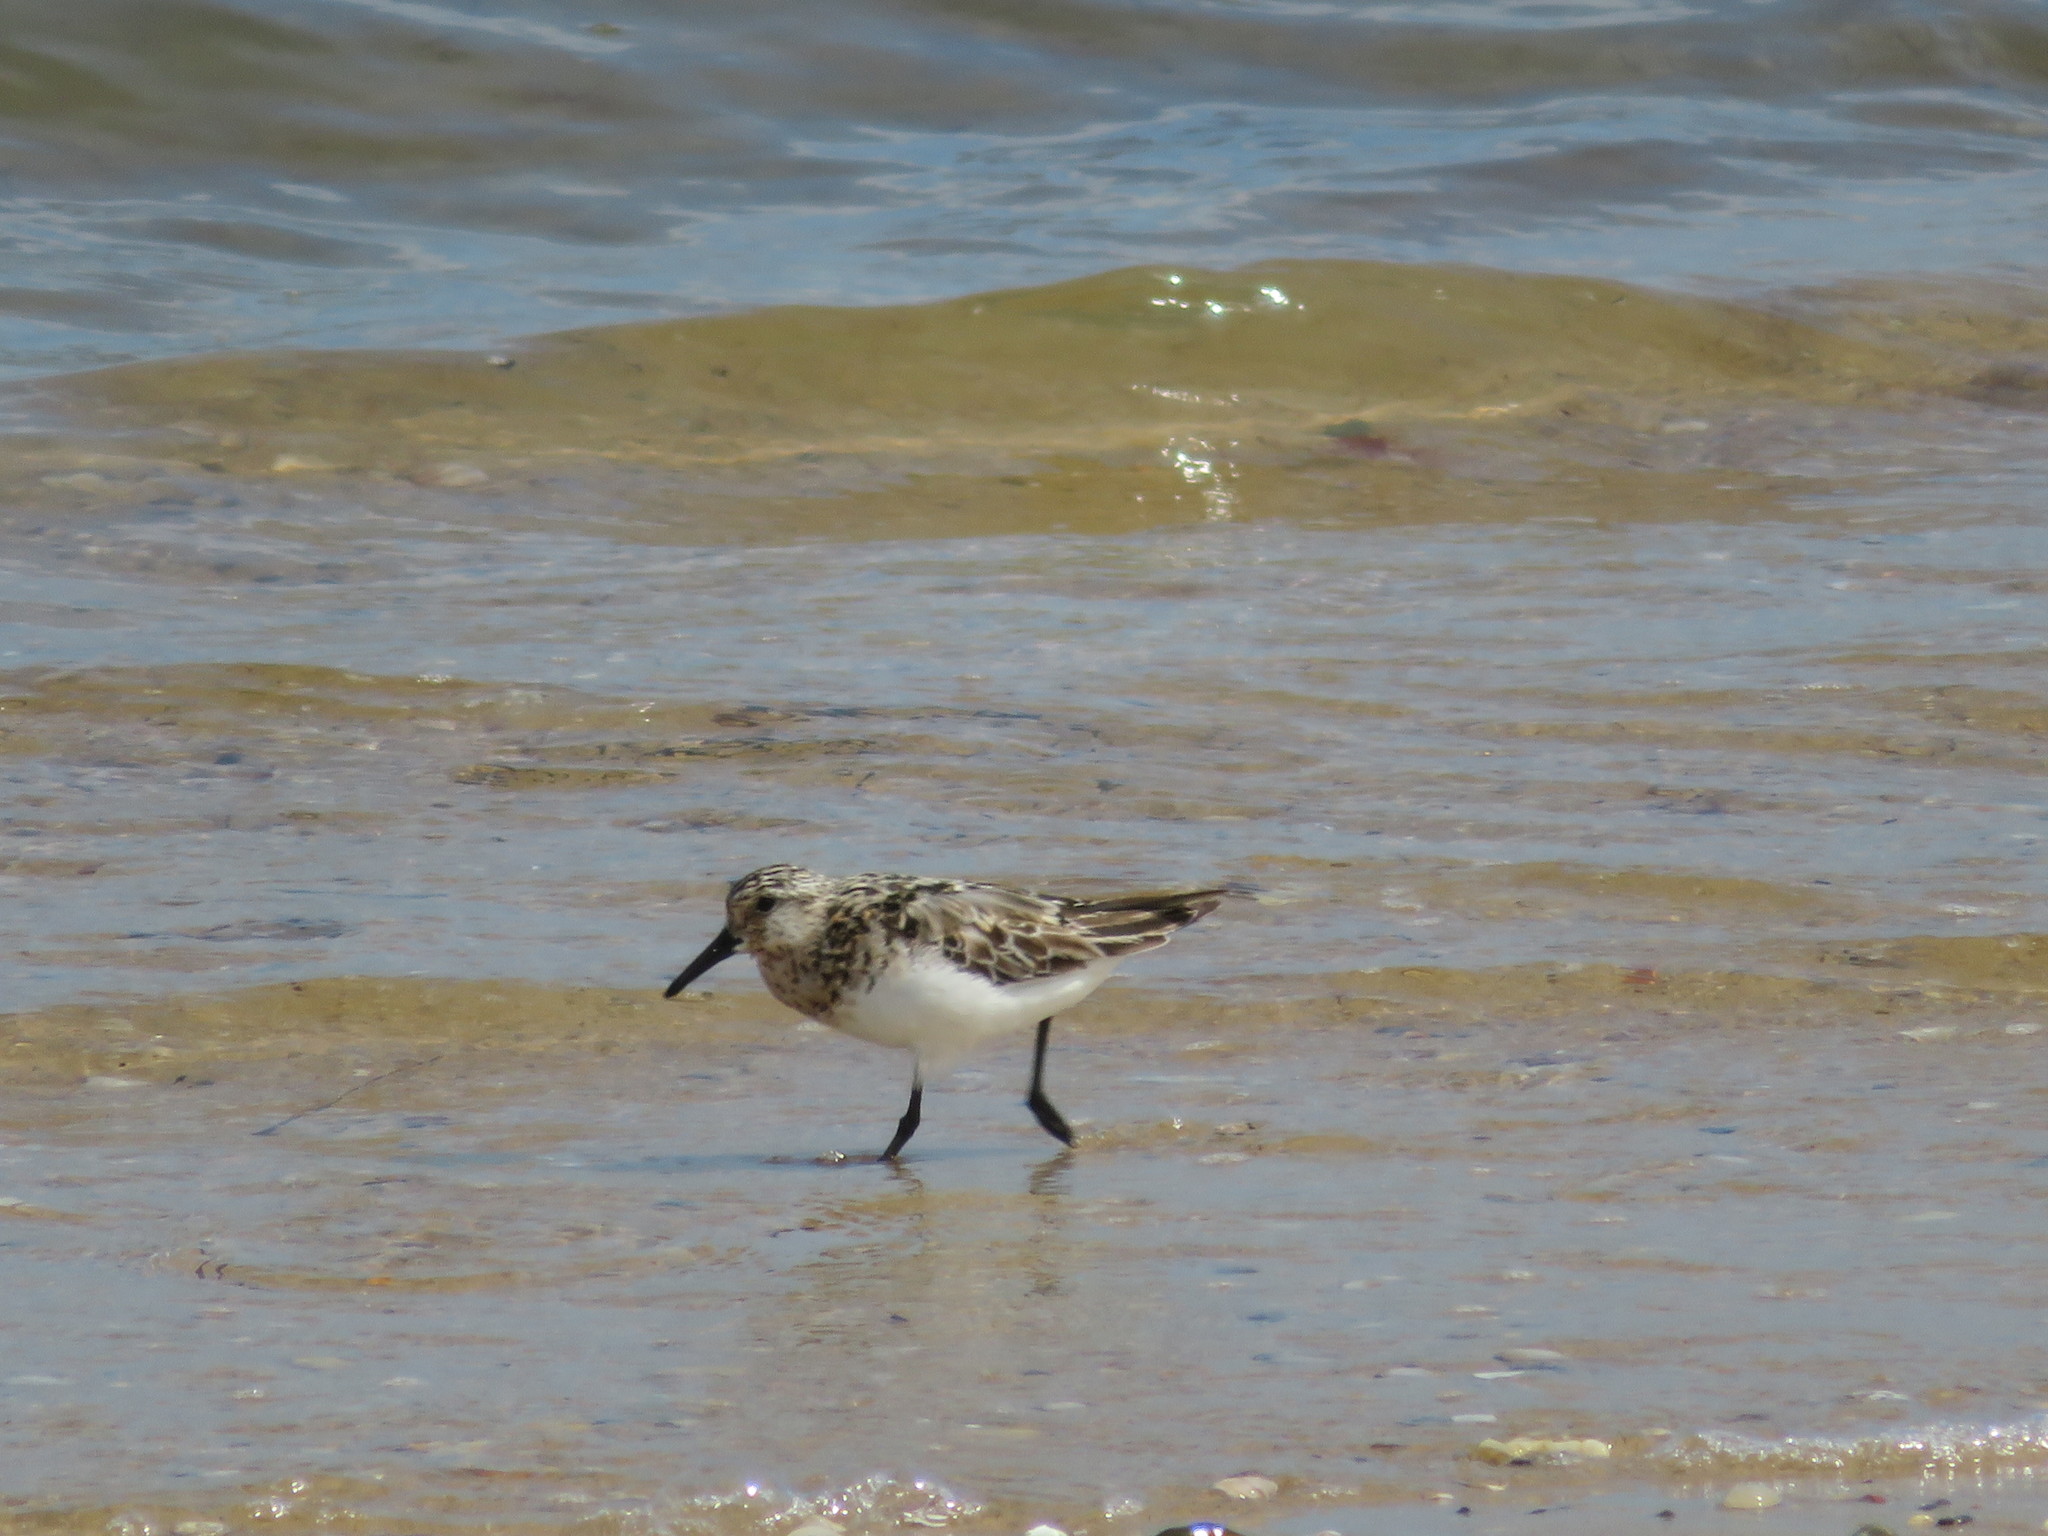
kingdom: Animalia
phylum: Chordata
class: Aves
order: Charadriiformes
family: Scolopacidae
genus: Calidris
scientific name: Calidris alba
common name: Sanderling
